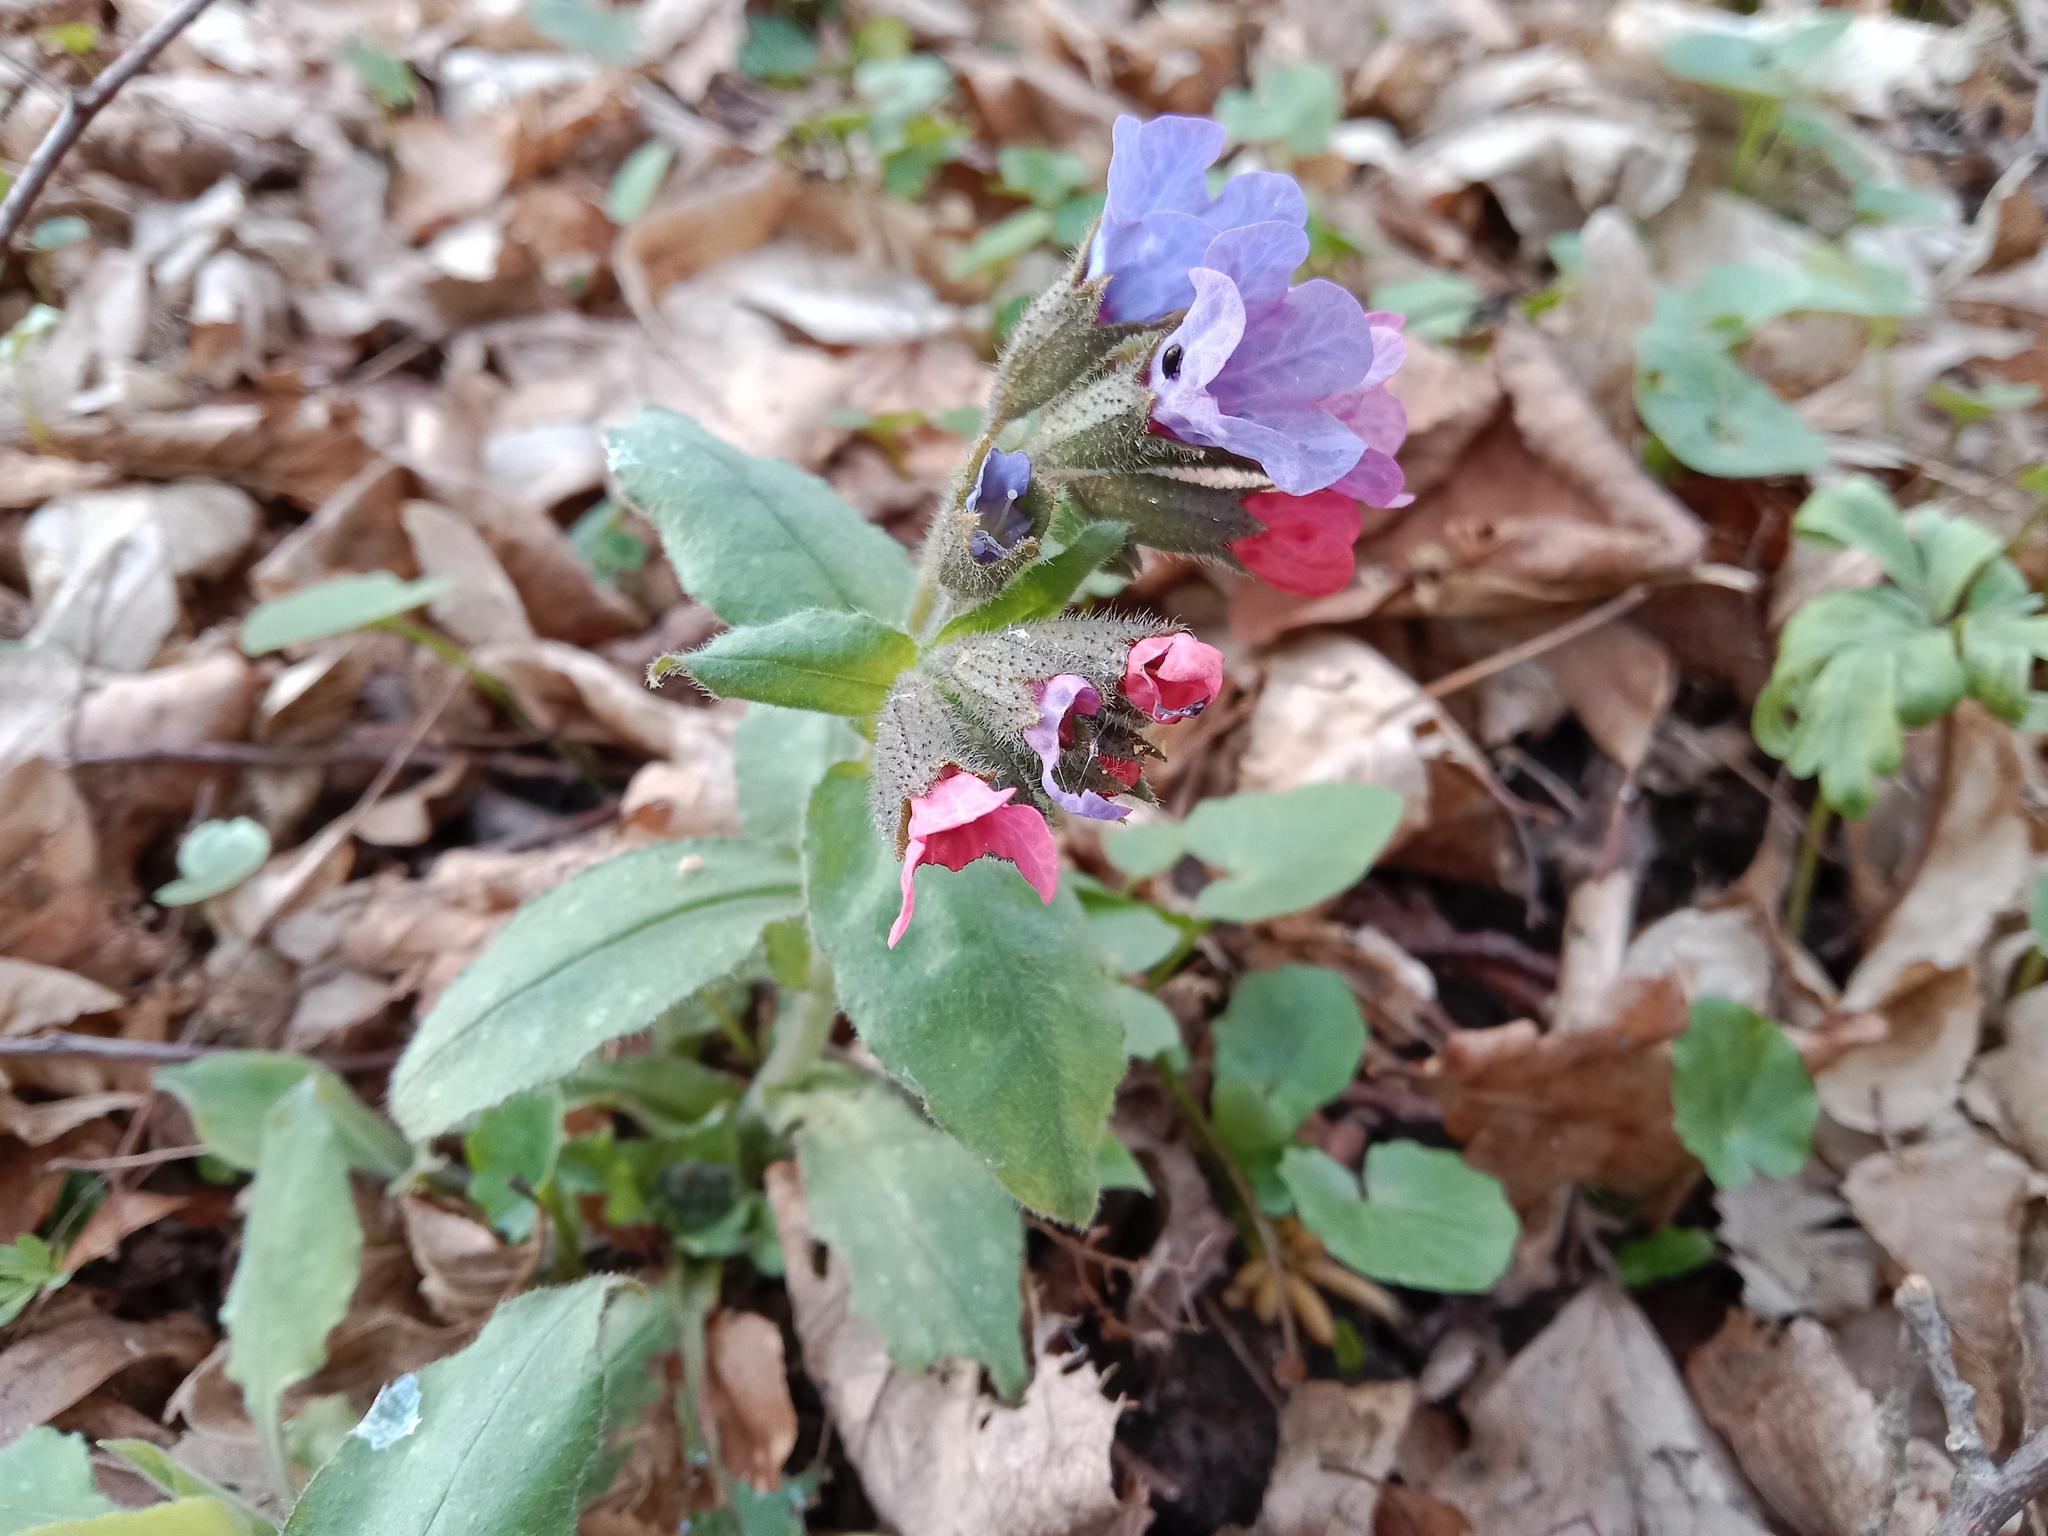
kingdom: Plantae
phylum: Tracheophyta
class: Magnoliopsida
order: Boraginales
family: Boraginaceae
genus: Pulmonaria
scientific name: Pulmonaria obscura
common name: Suffolk lungwort
